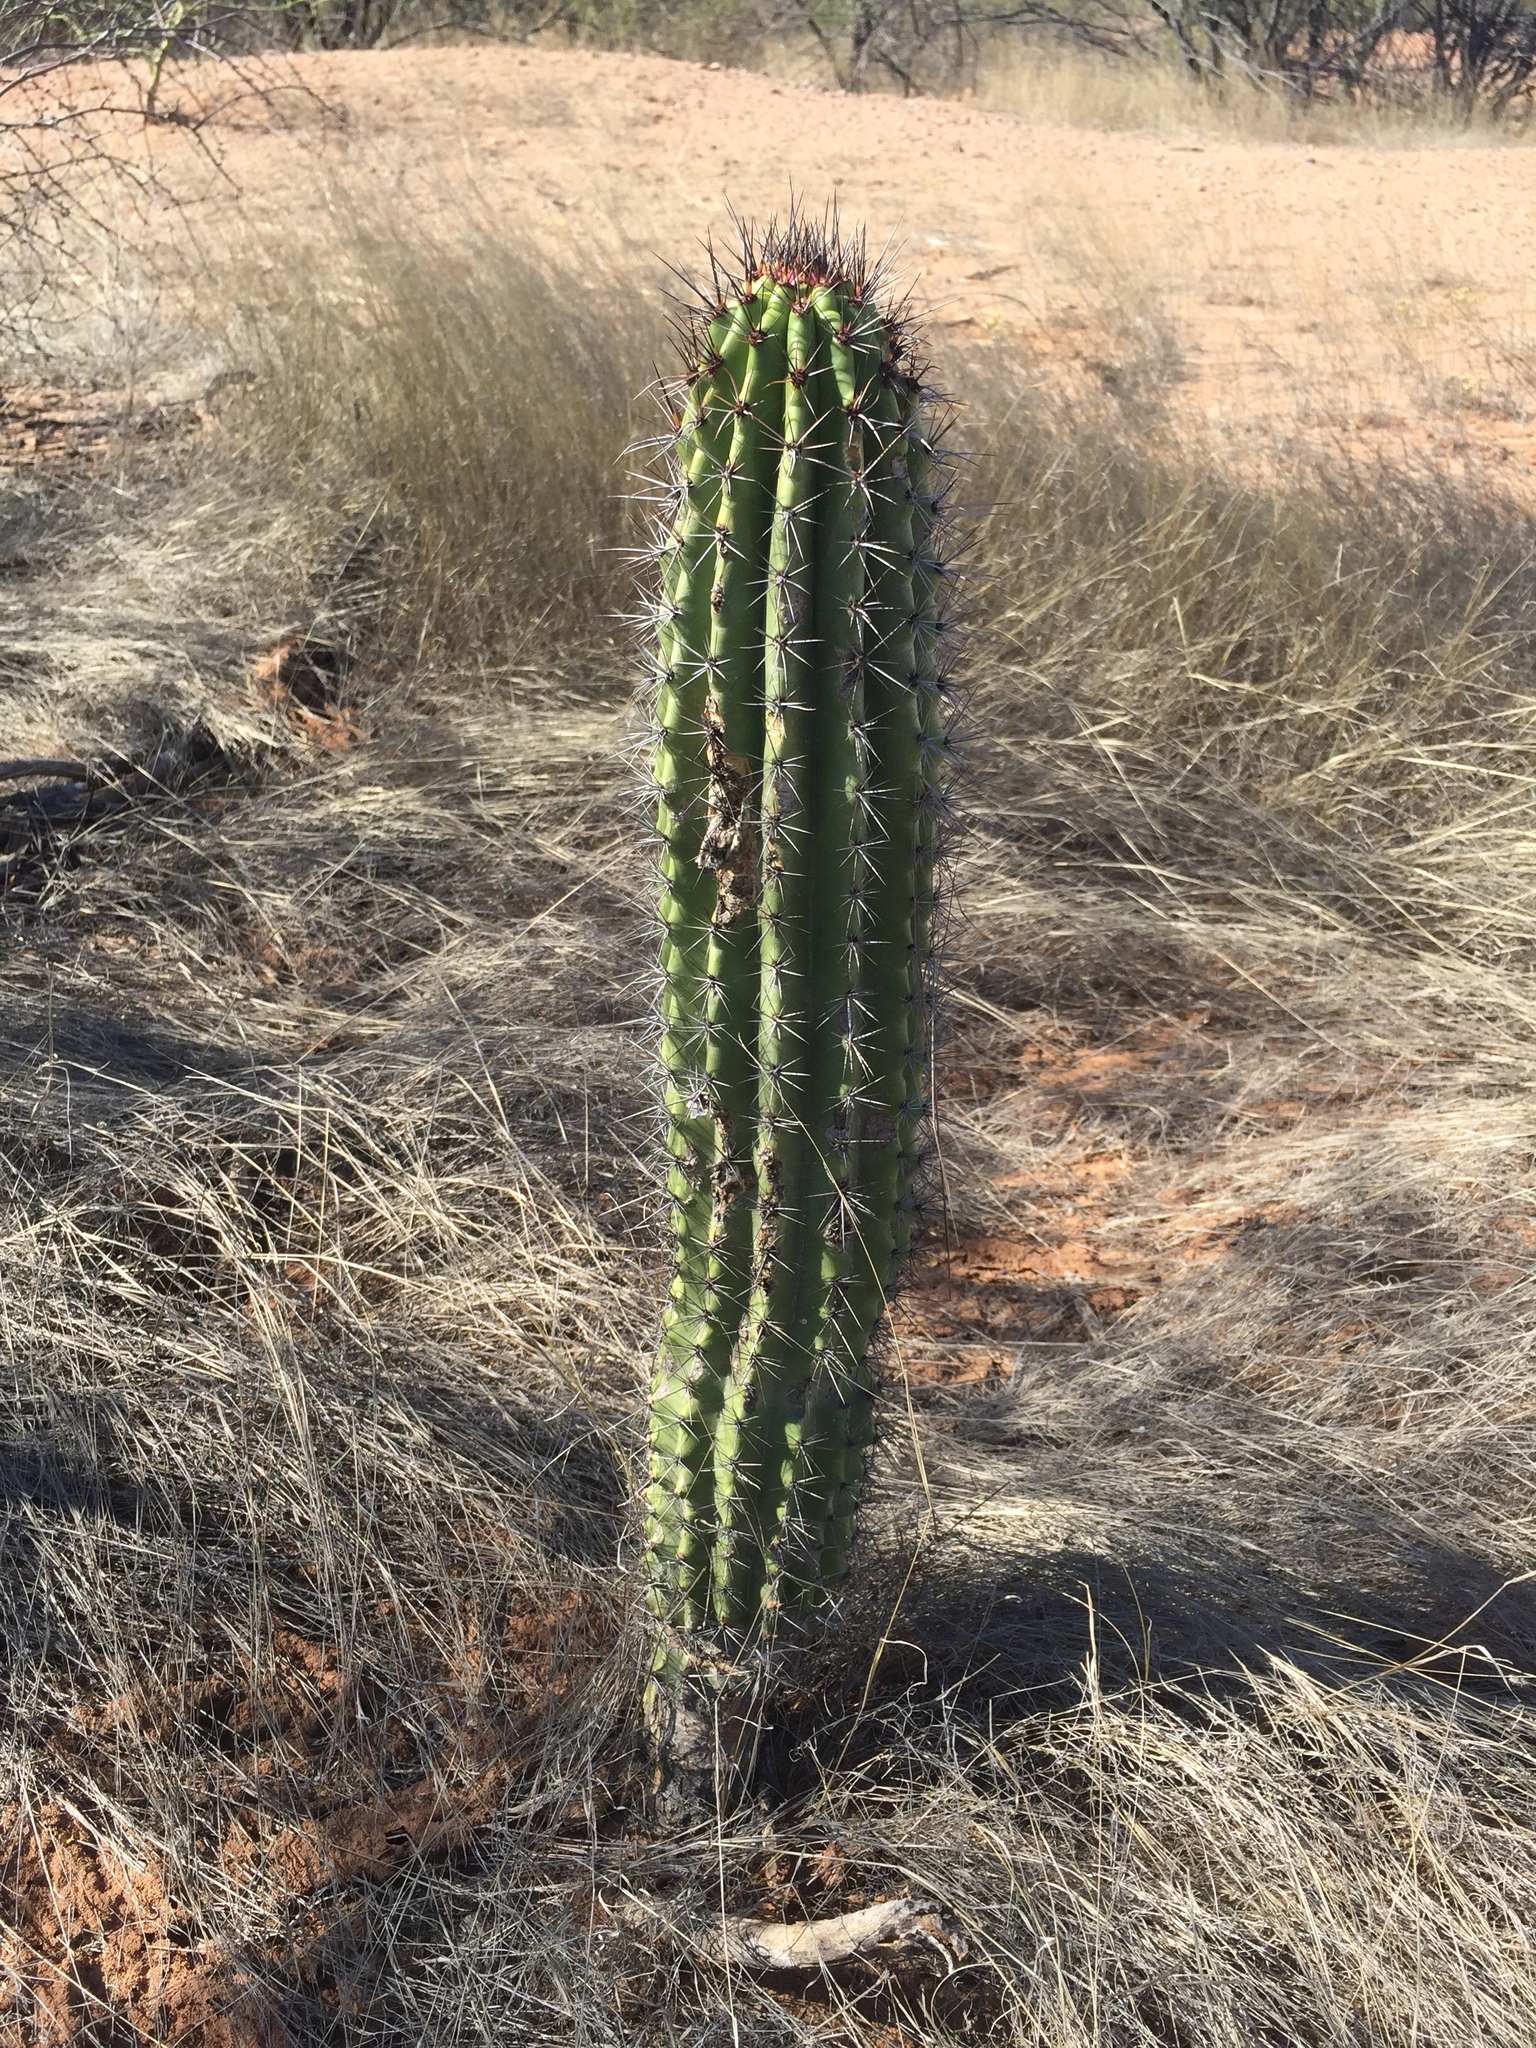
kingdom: Plantae
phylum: Tracheophyta
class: Magnoliopsida
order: Caryophyllales
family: Cactaceae
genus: Stenocereus
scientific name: Stenocereus thurberi
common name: Organ pipe cactus
